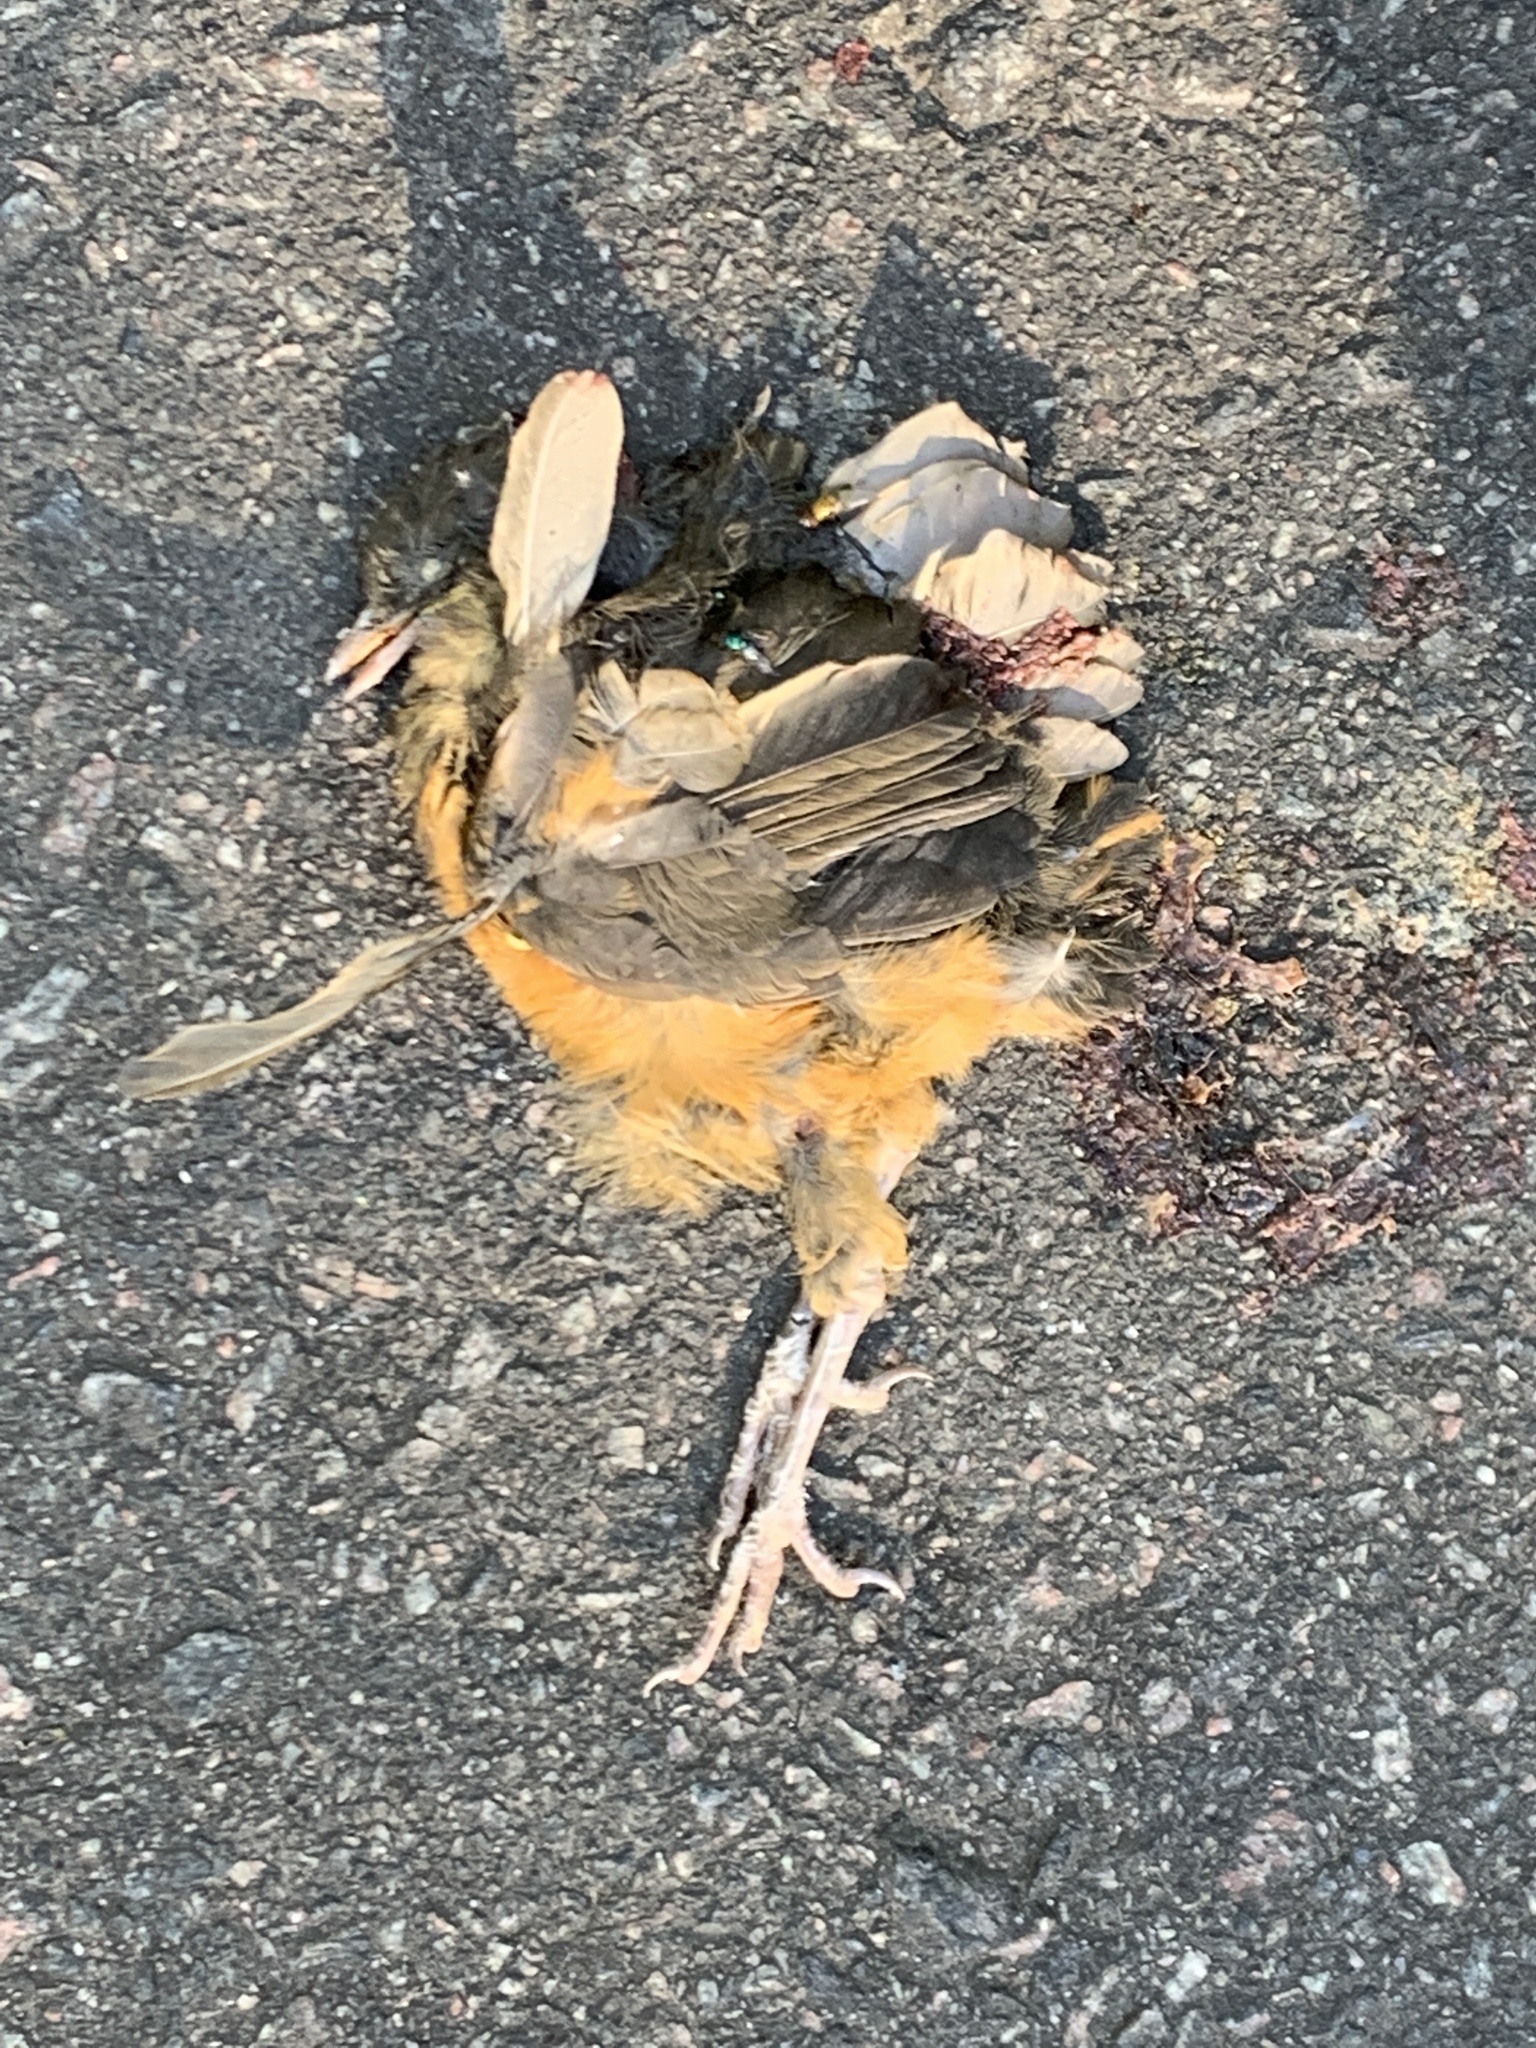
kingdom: Animalia
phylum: Chordata
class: Aves
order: Passeriformes
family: Turdidae
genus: Turdus
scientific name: Turdus rufiventris
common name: Rufous-bellied thrush
